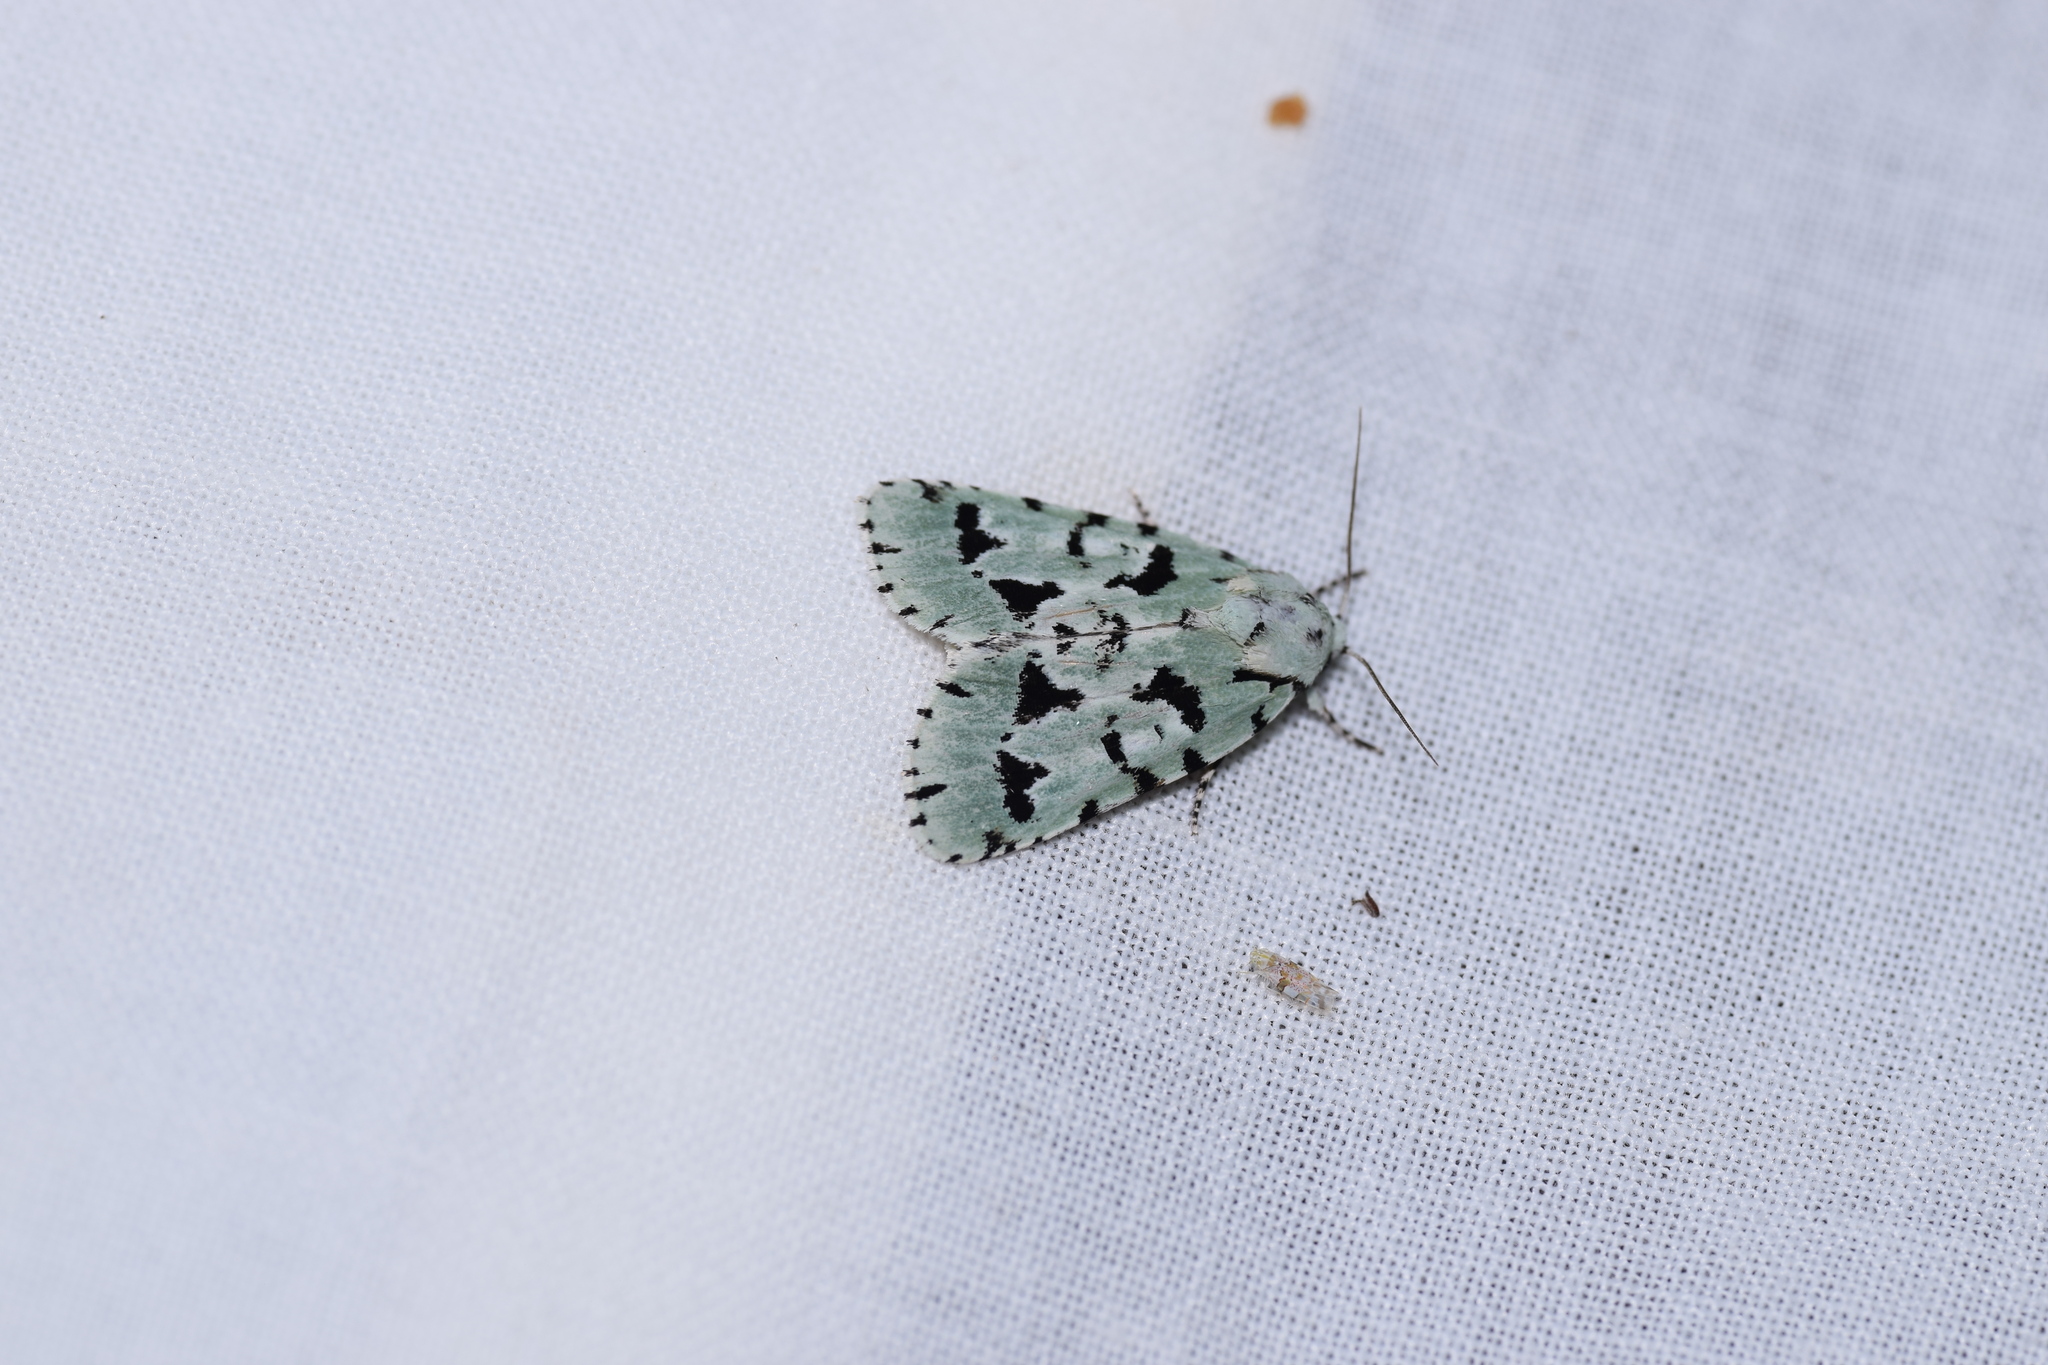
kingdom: Animalia
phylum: Arthropoda
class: Insecta
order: Lepidoptera
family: Noctuidae
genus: Acronicta
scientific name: Acronicta fallax
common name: Green marvel
